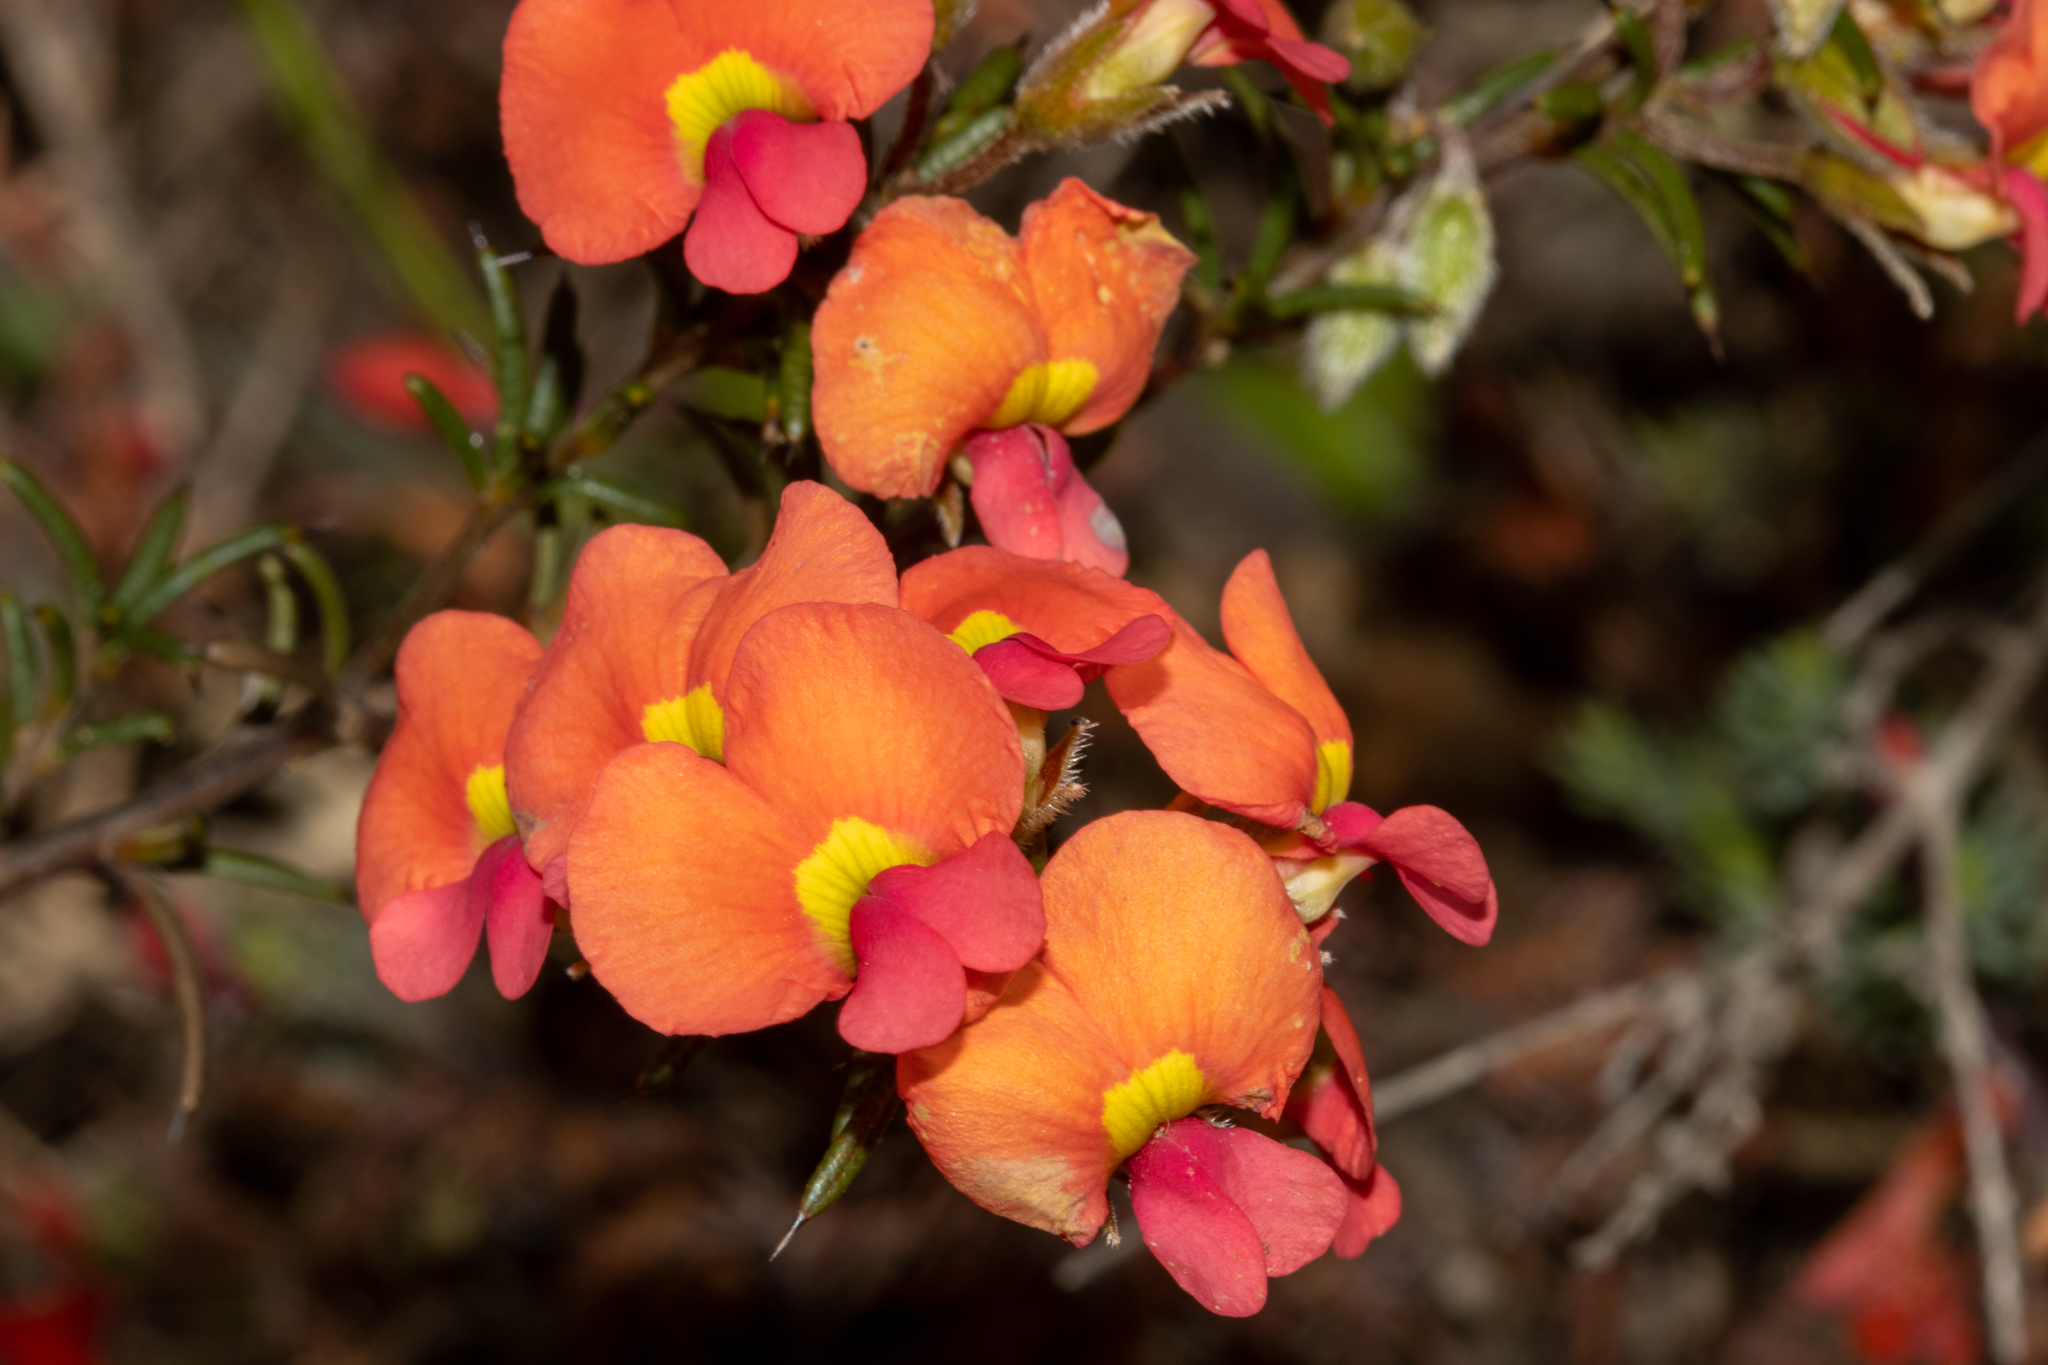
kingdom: Plantae
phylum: Tracheophyta
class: Magnoliopsida
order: Fabales
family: Fabaceae
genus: Chorizema
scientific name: Chorizema aciculare
